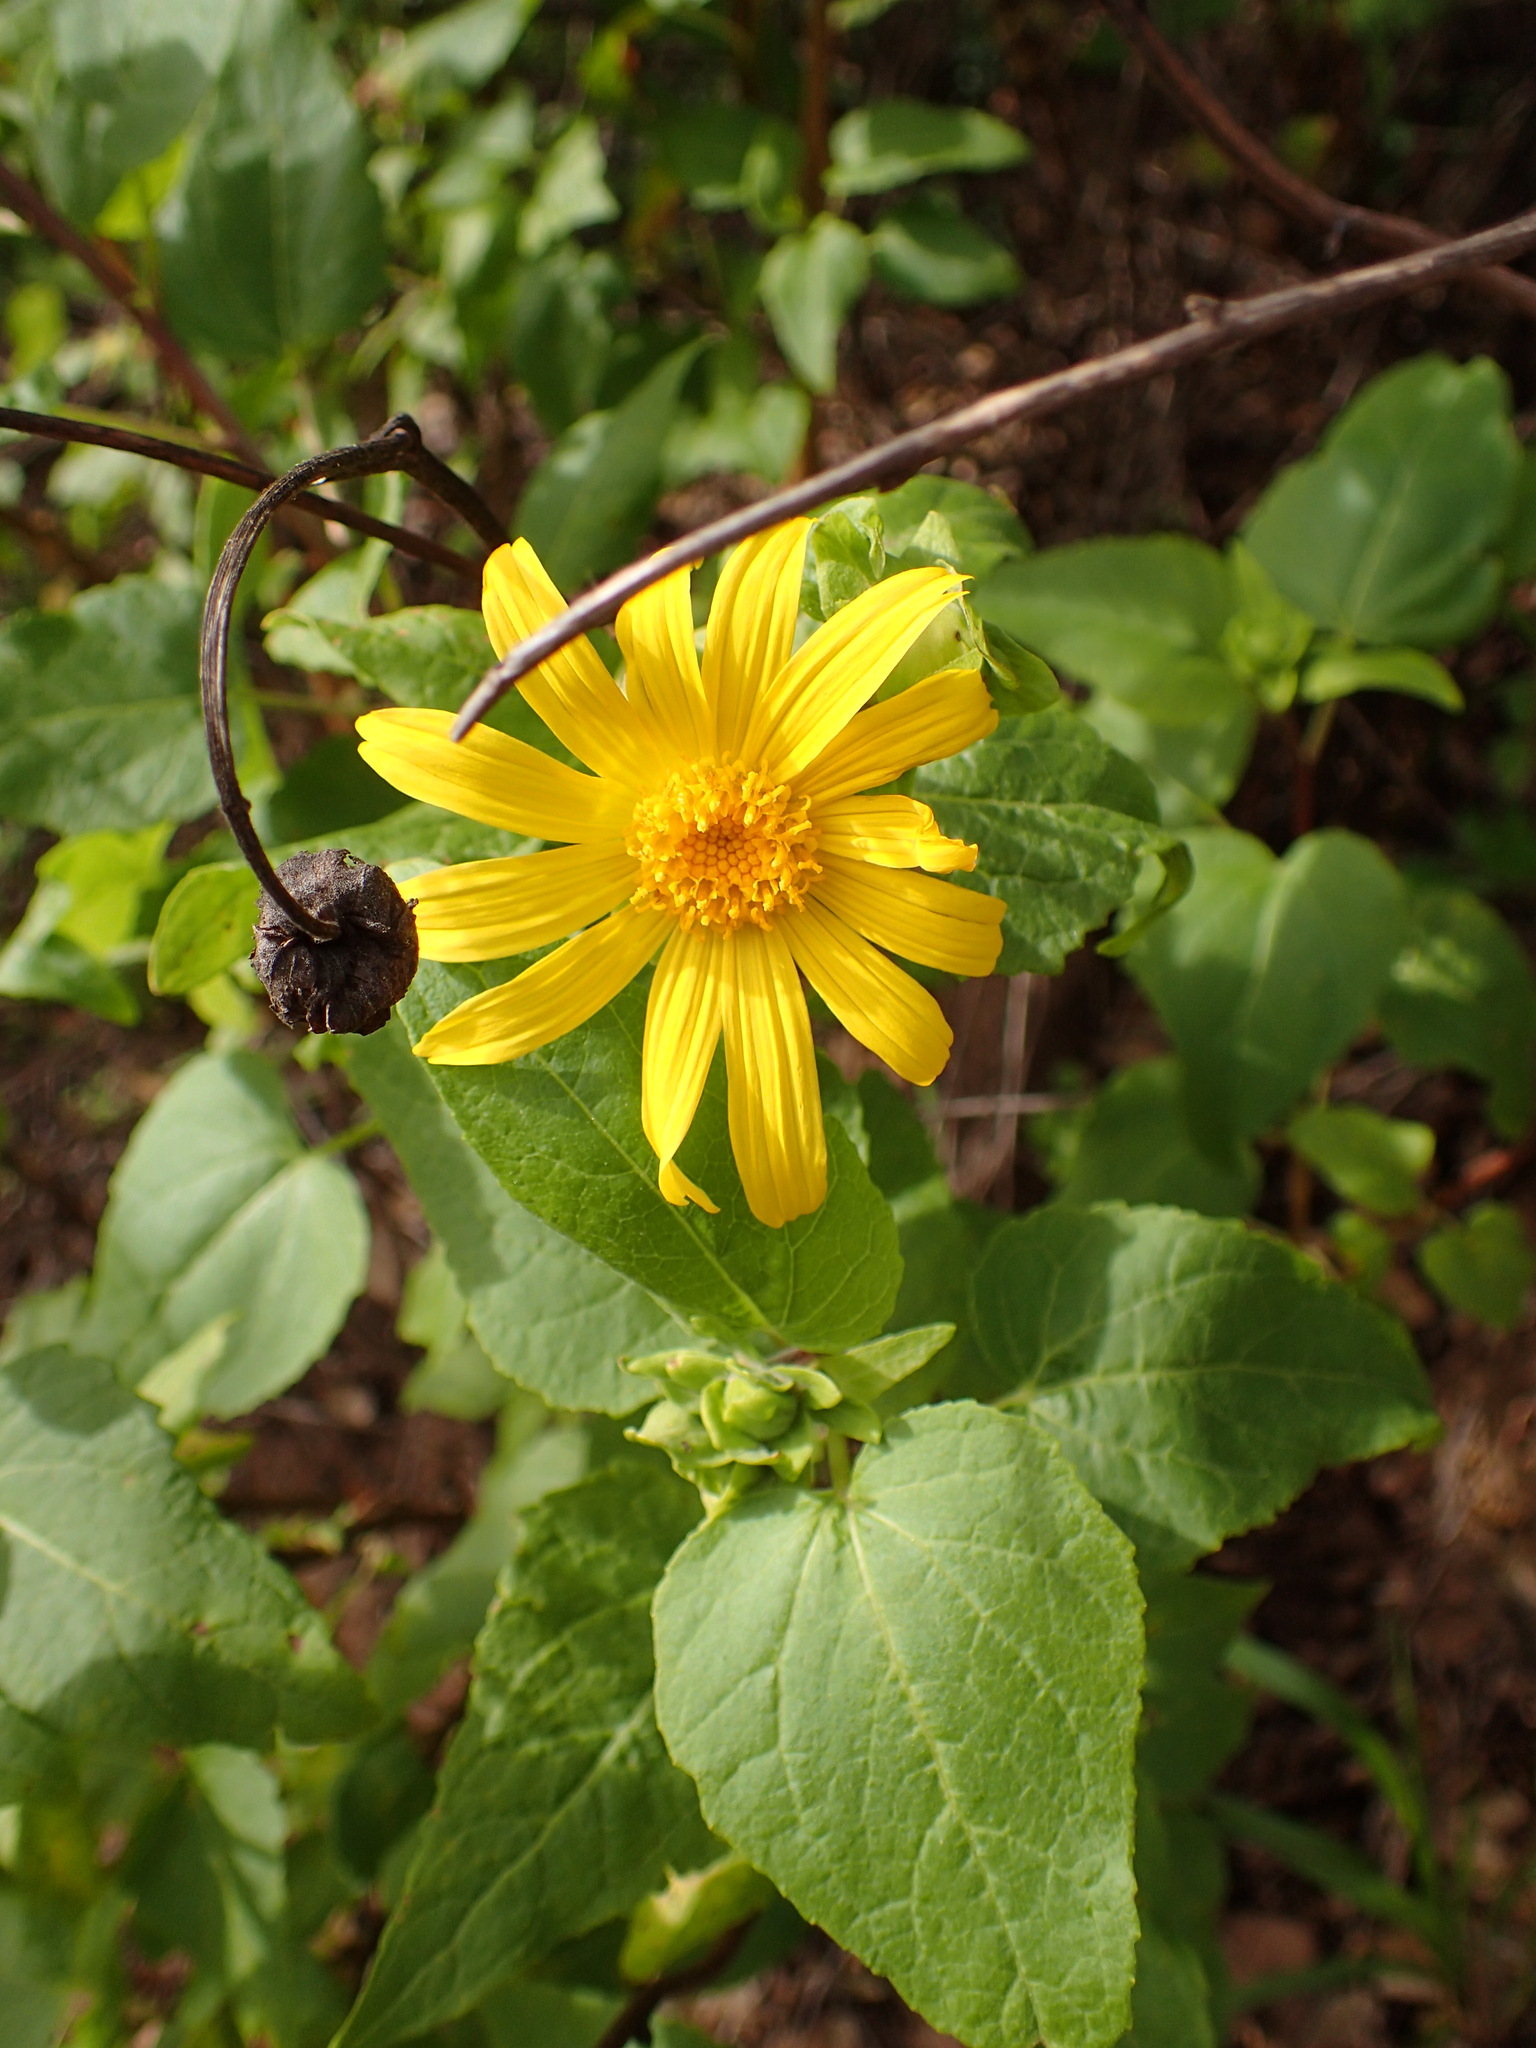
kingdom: Plantae
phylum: Tracheophyta
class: Magnoliopsida
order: Asterales
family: Asteraceae
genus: Venegasia
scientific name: Venegasia carpesioides
